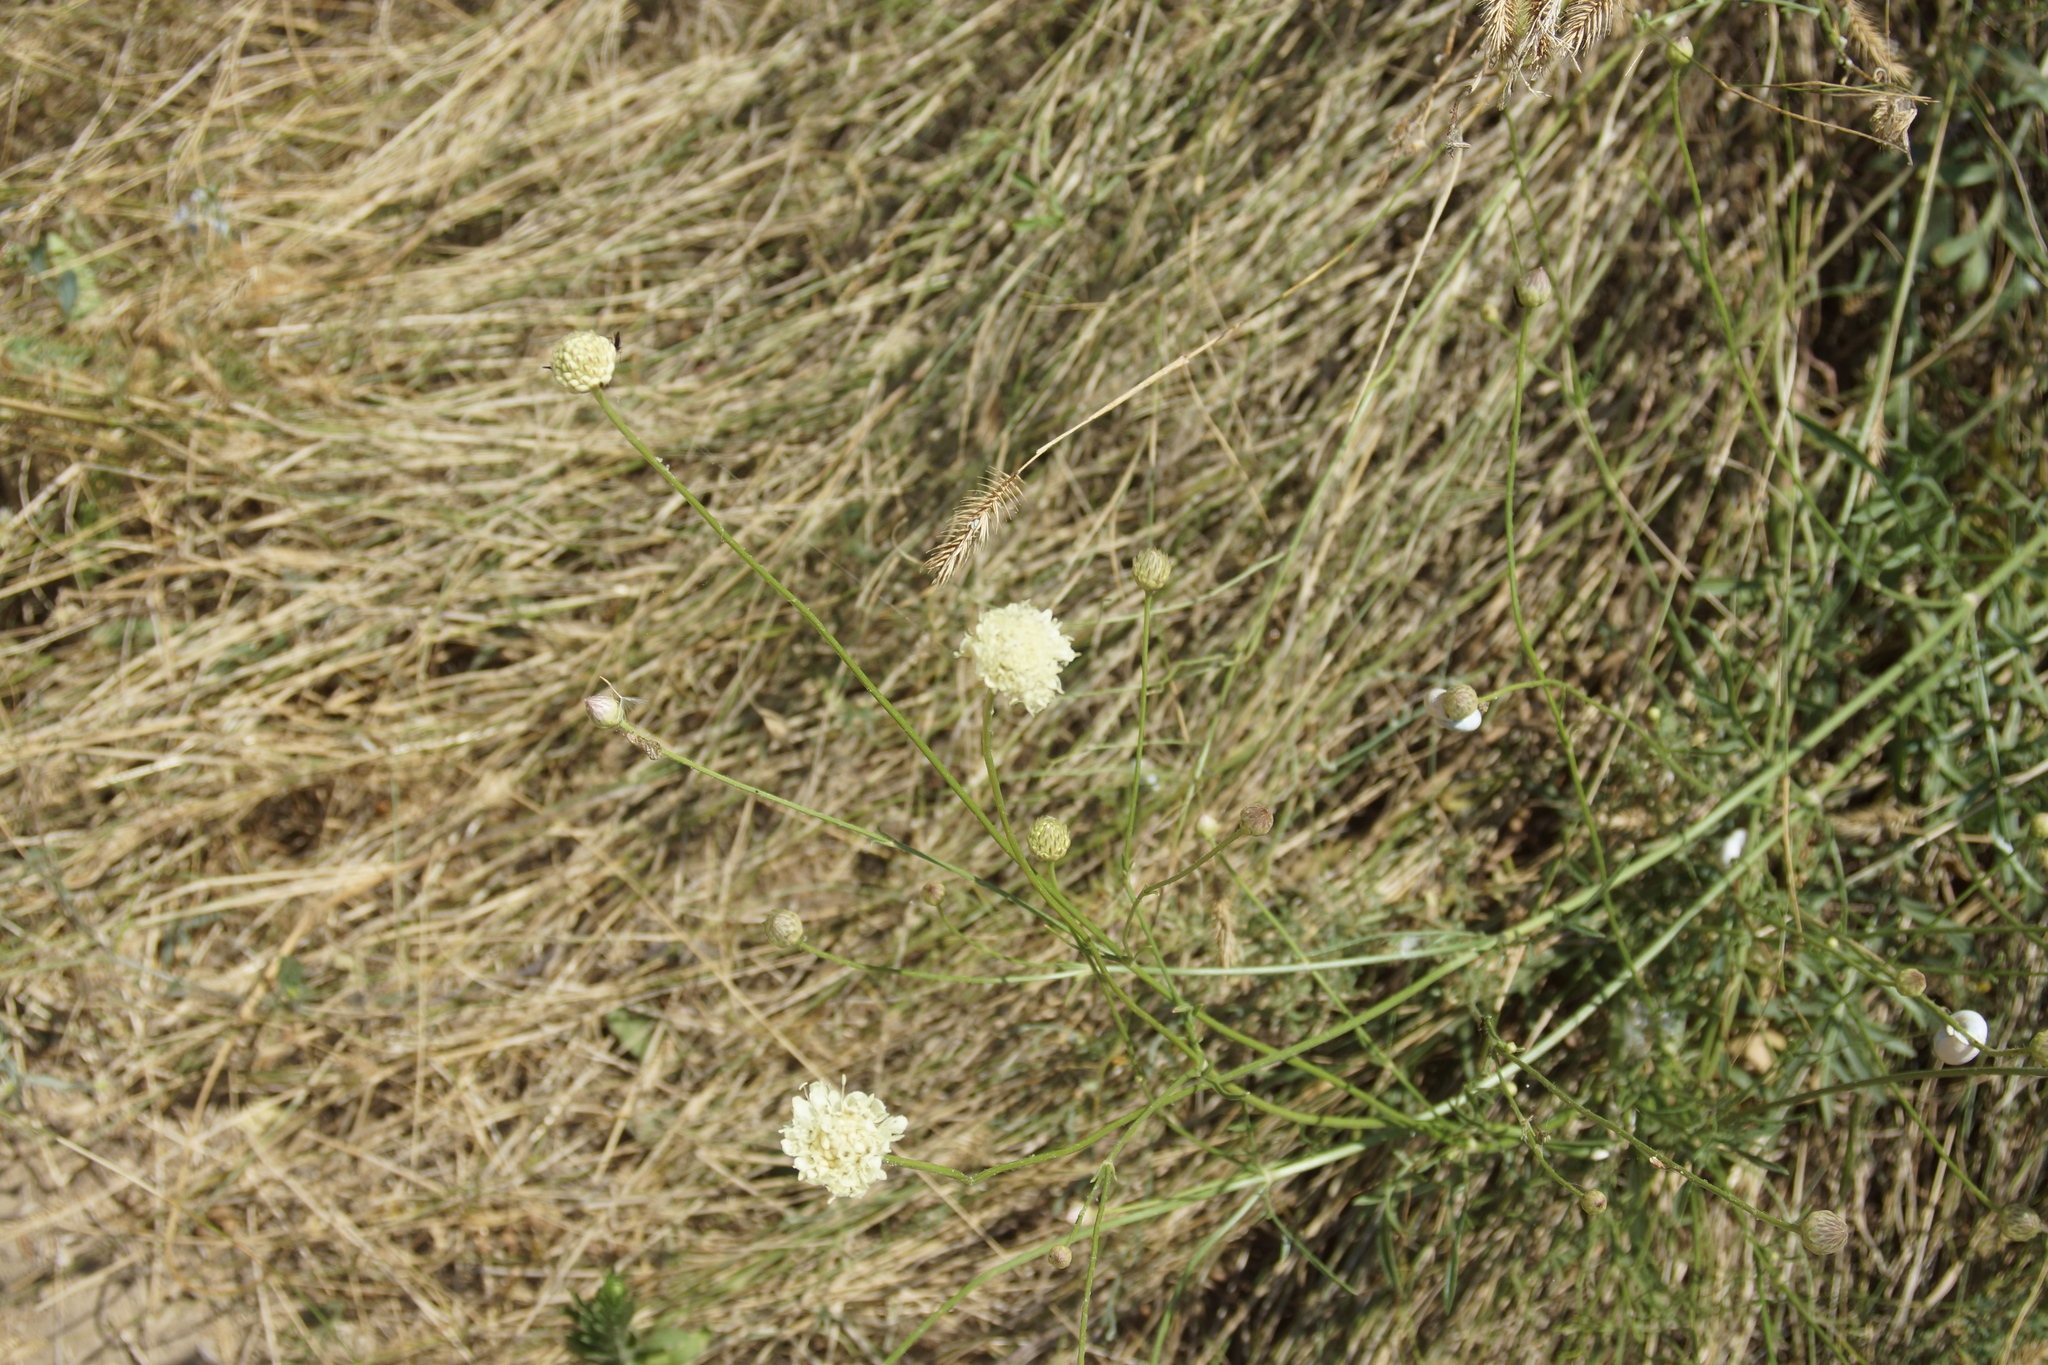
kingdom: Plantae
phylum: Tracheophyta
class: Magnoliopsida
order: Dipsacales
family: Caprifoliaceae
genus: Cephalaria
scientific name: Cephalaria uralensis
